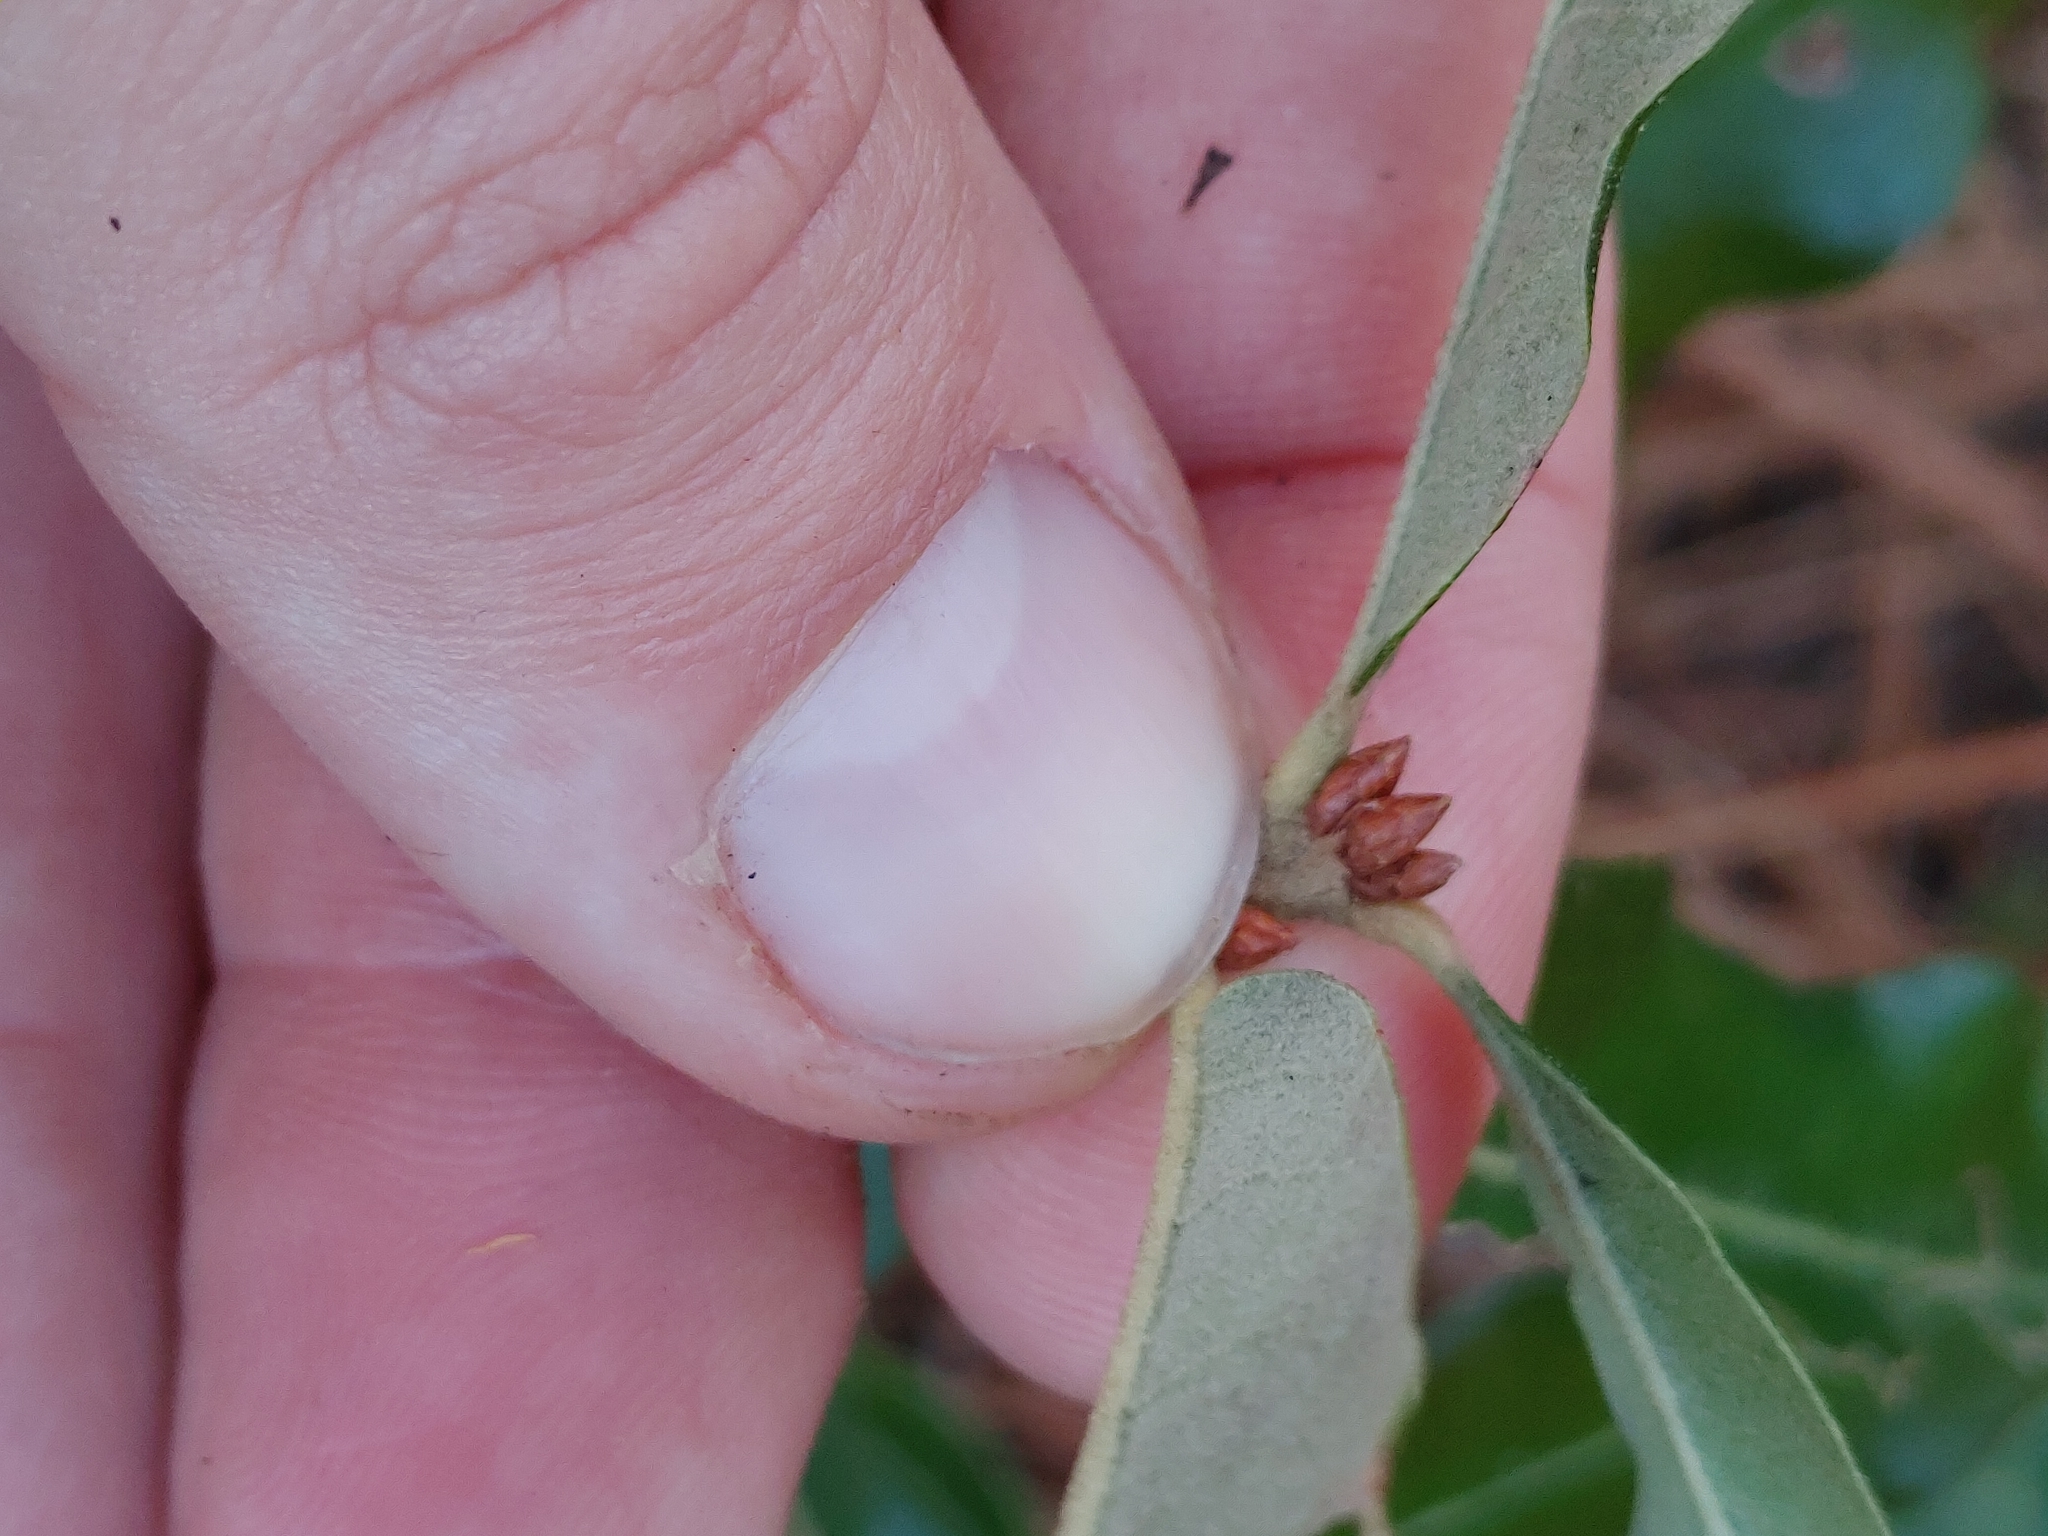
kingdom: Plantae
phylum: Tracheophyta
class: Magnoliopsida
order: Fagales
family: Fagaceae
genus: Quercus
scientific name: Quercus pumila
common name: Runner oak
